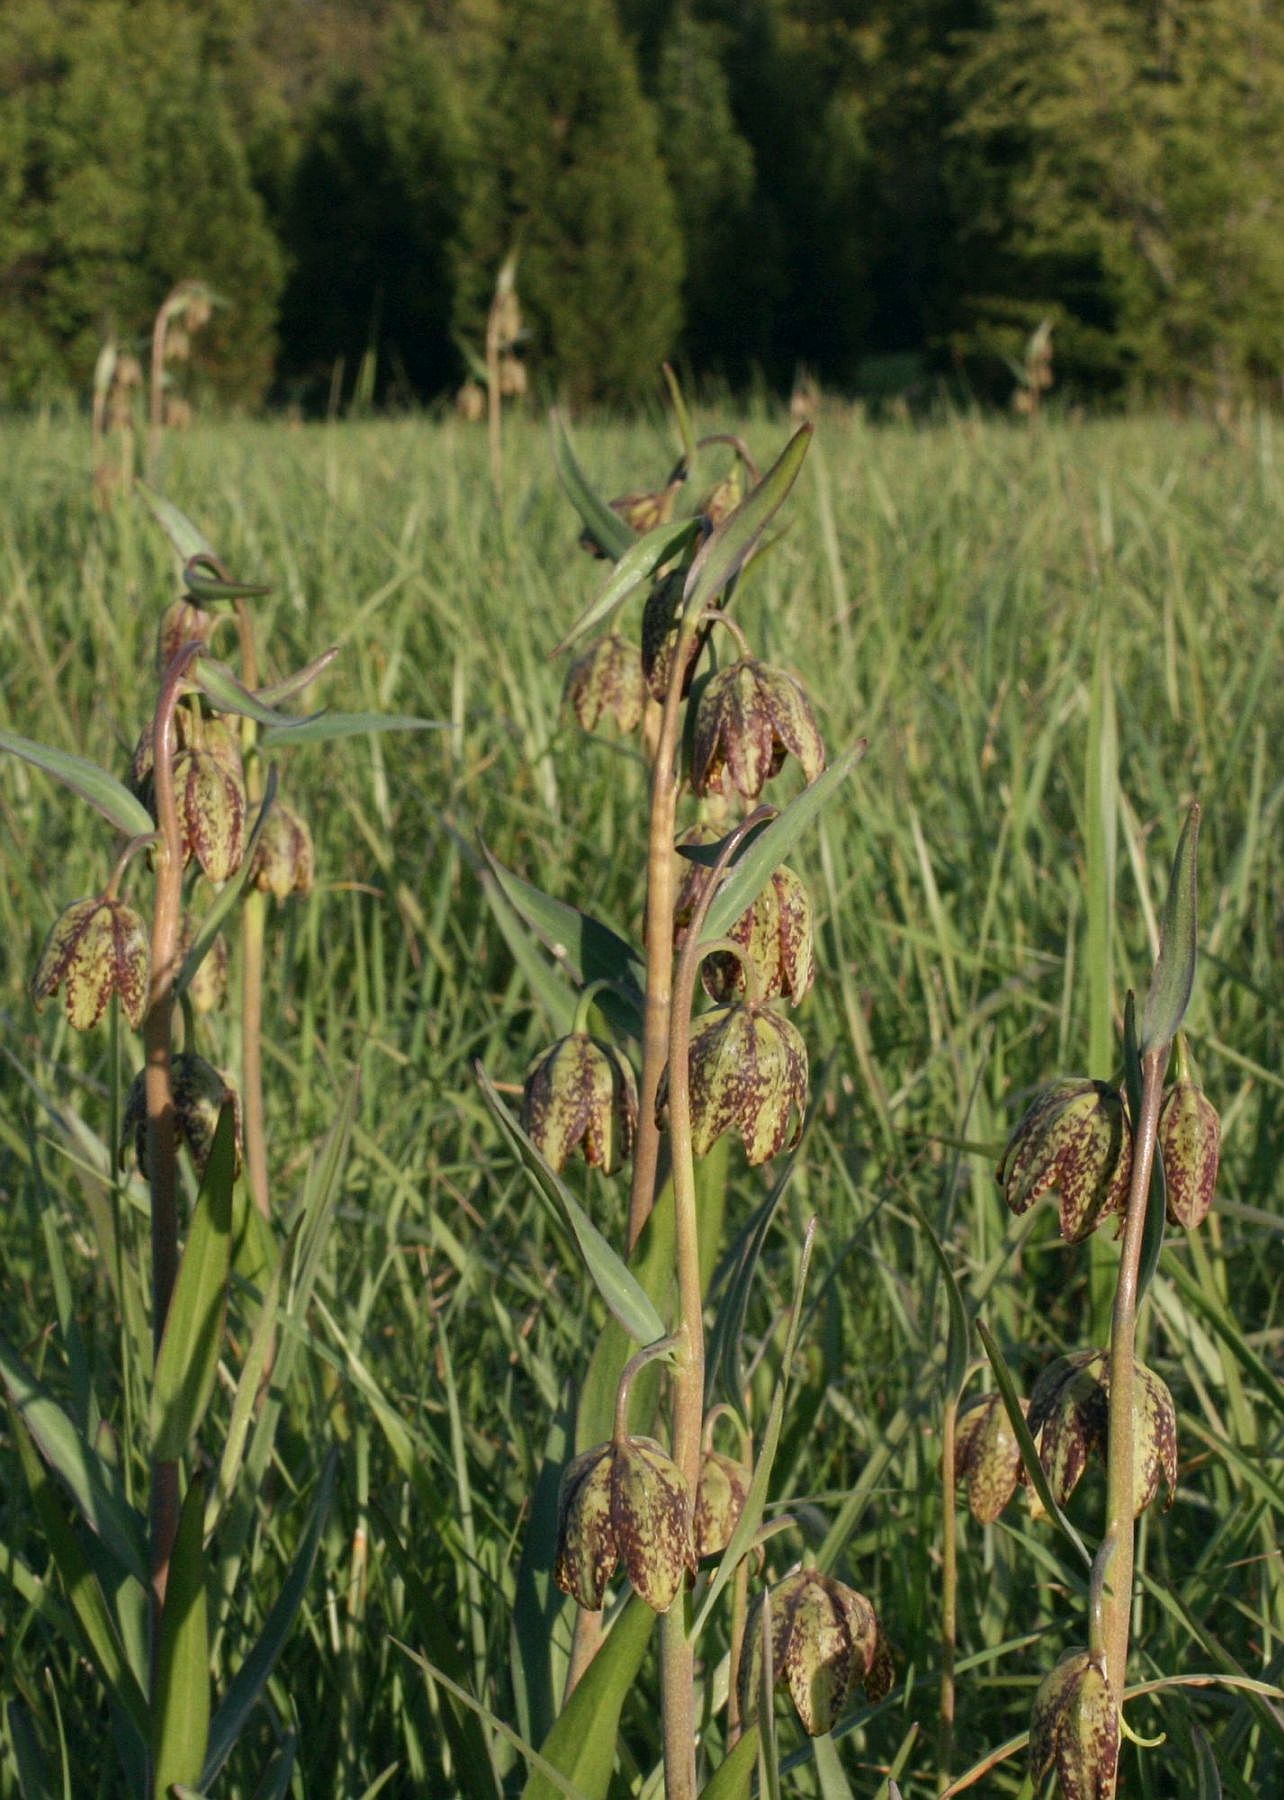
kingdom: Plantae
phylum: Tracheophyta
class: Liliopsida
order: Liliales
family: Liliaceae
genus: Fritillaria
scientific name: Fritillaria affinis
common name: Ojai fritillary
